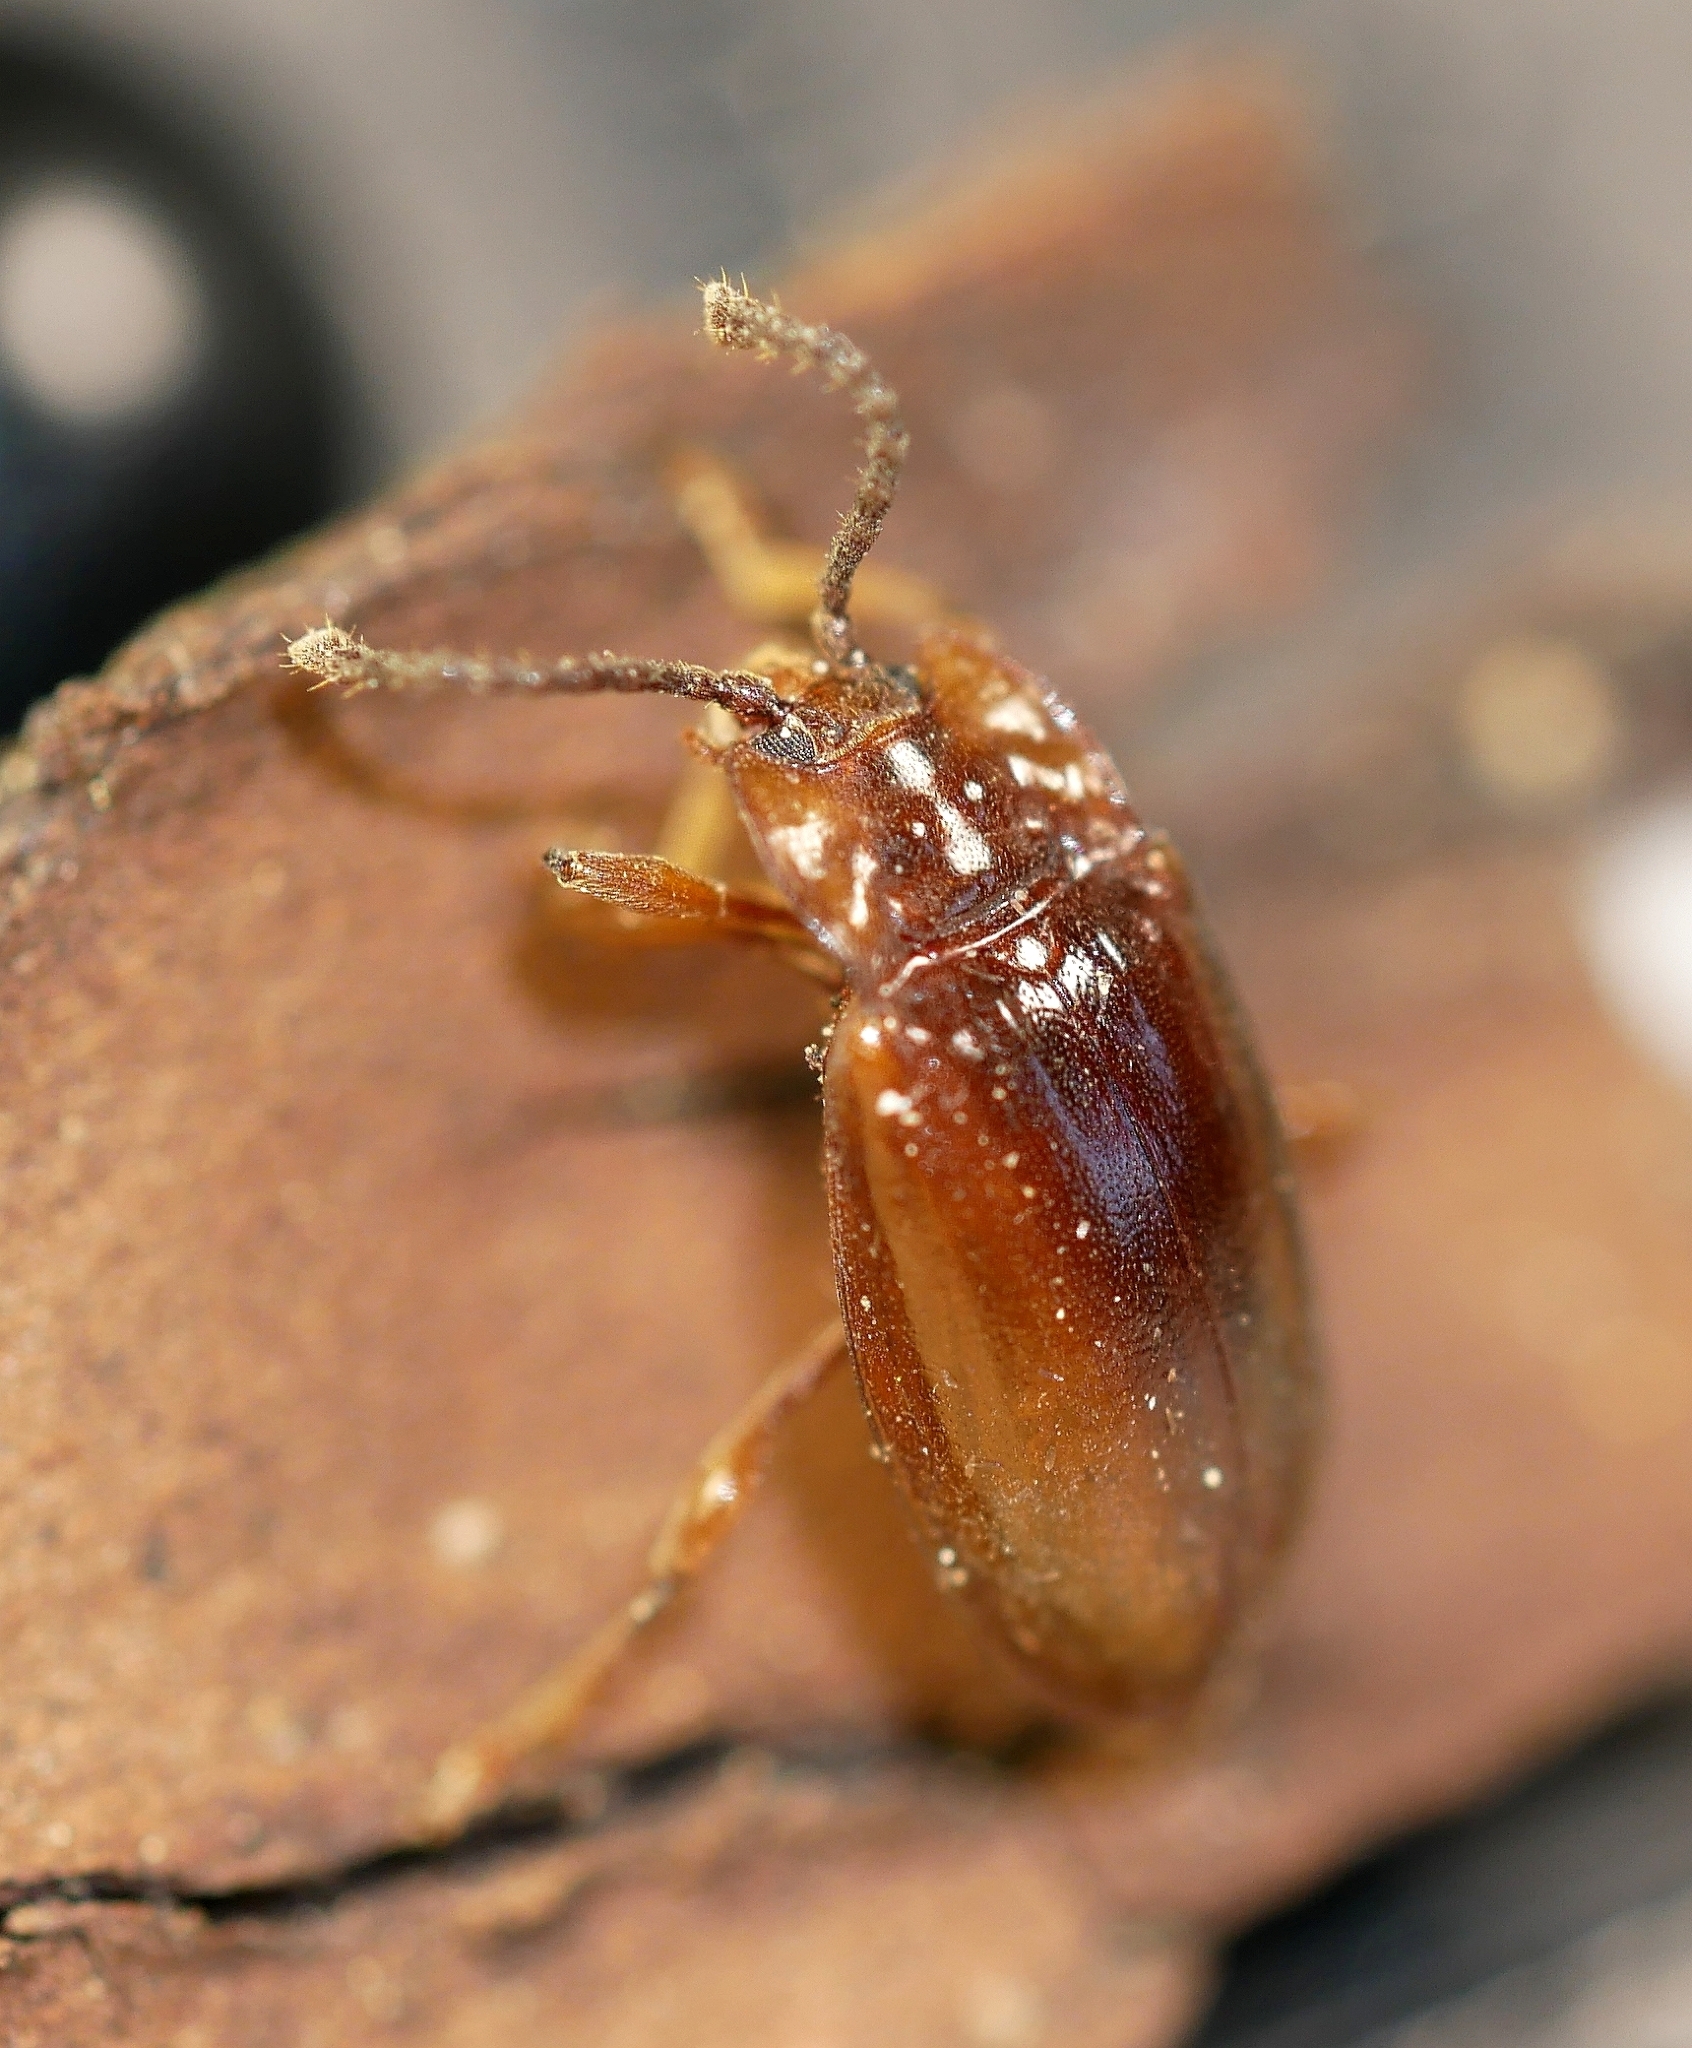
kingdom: Animalia
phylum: Arthropoda
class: Insecta
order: Coleoptera
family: Endomychidae
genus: Aphorista
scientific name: Aphorista morosa
